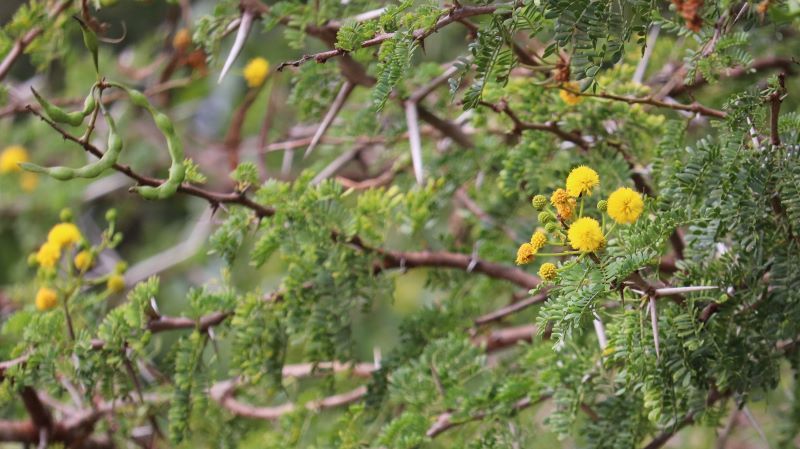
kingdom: Plantae
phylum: Tracheophyta
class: Magnoliopsida
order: Fabales
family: Fabaceae
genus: Vachellia
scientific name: Vachellia karroo
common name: Sweet thorn
